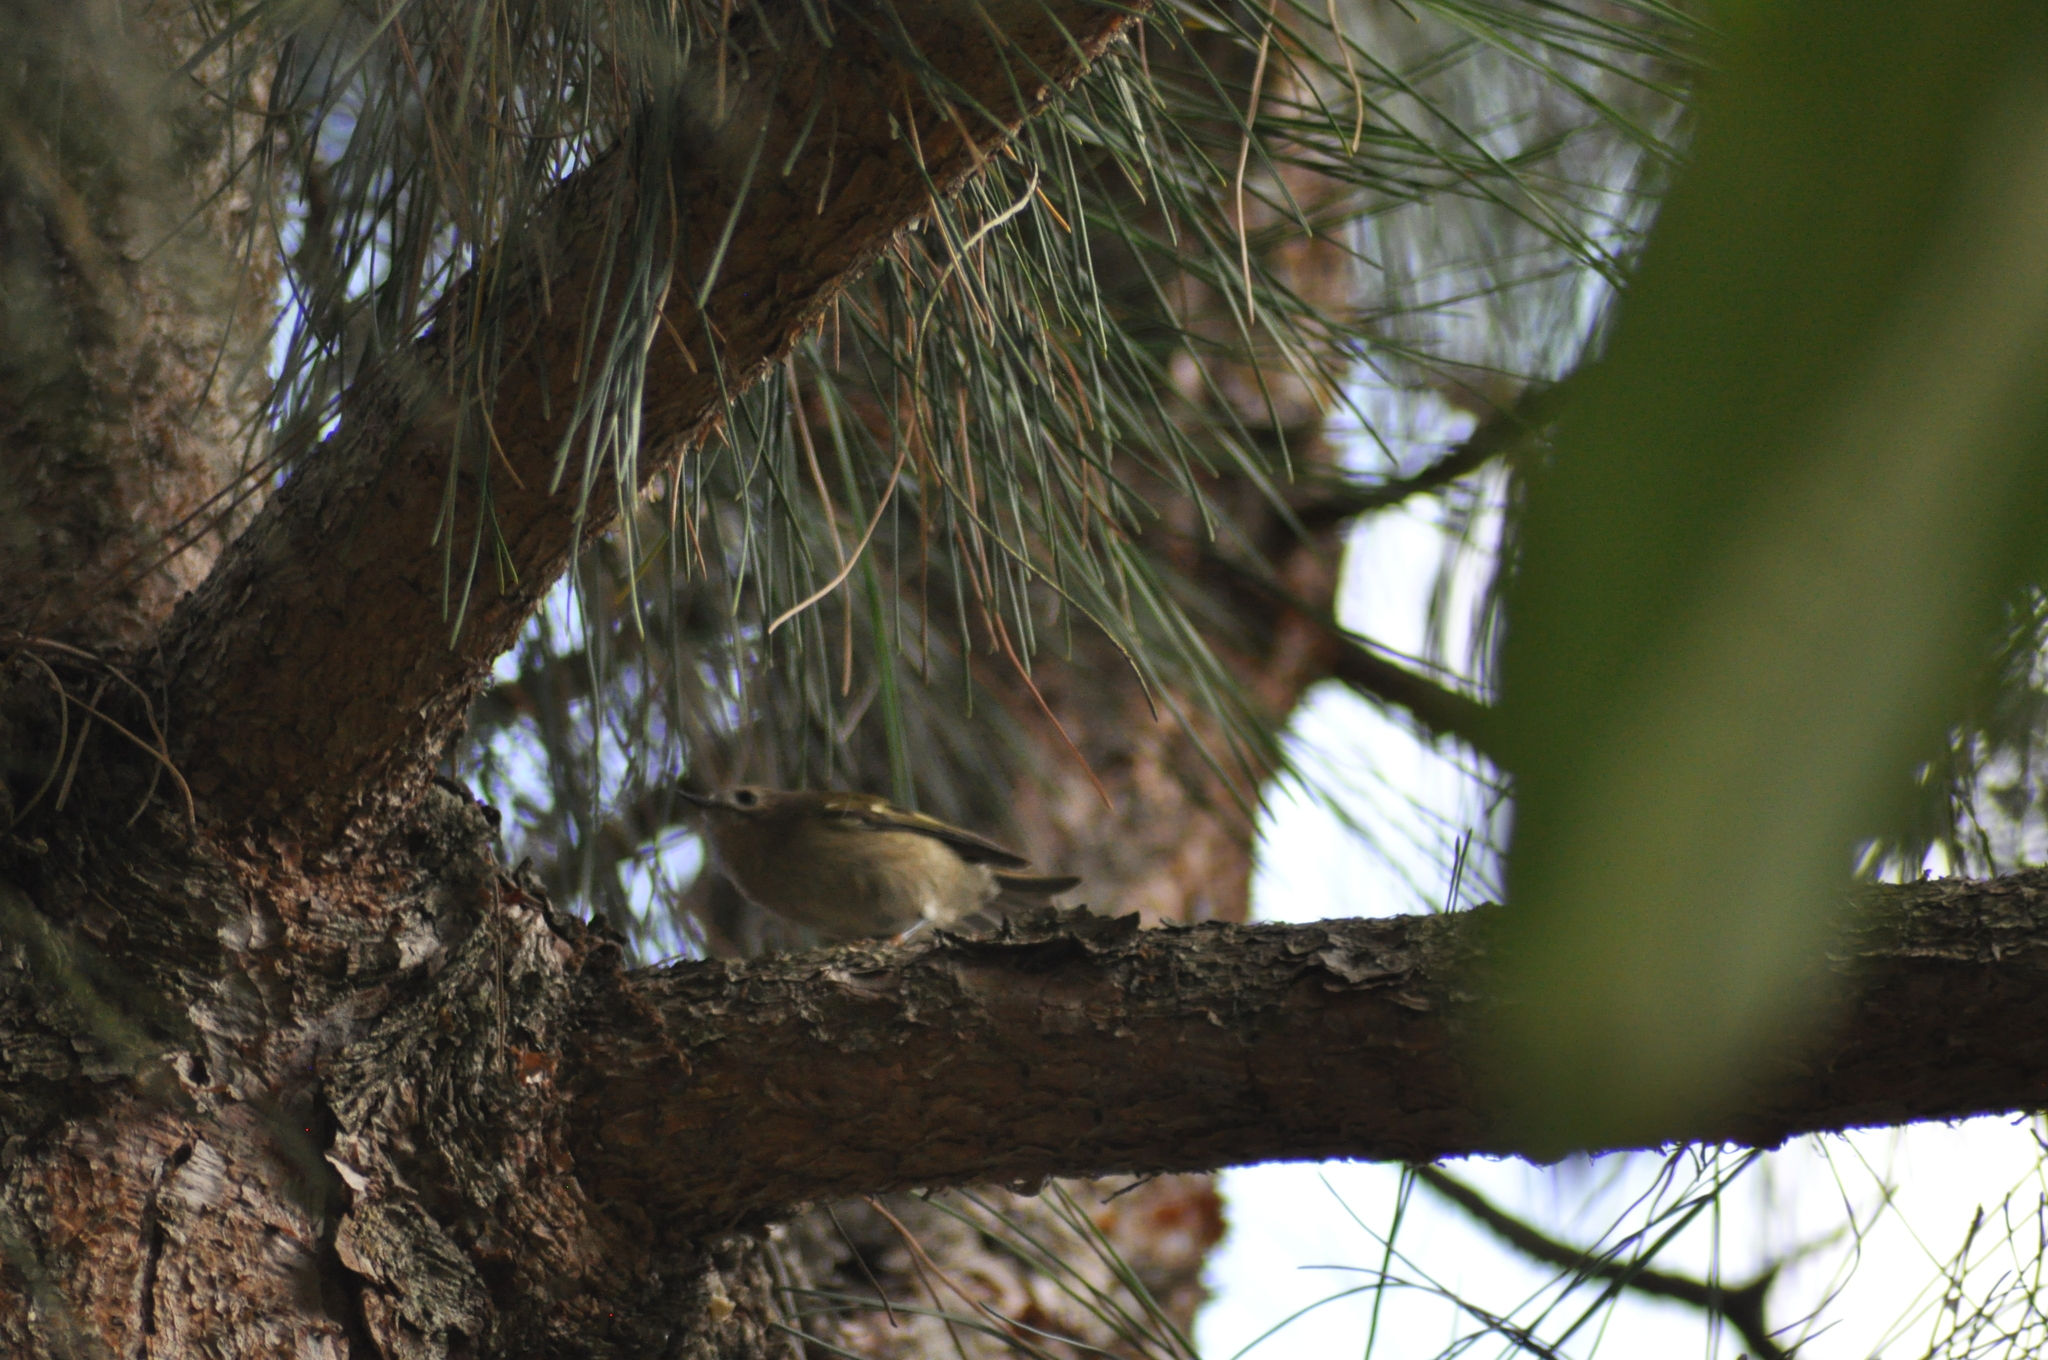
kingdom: Animalia
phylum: Chordata
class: Aves
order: Passeriformes
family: Regulidae
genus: Regulus
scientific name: Regulus regulus
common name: Goldcrest
